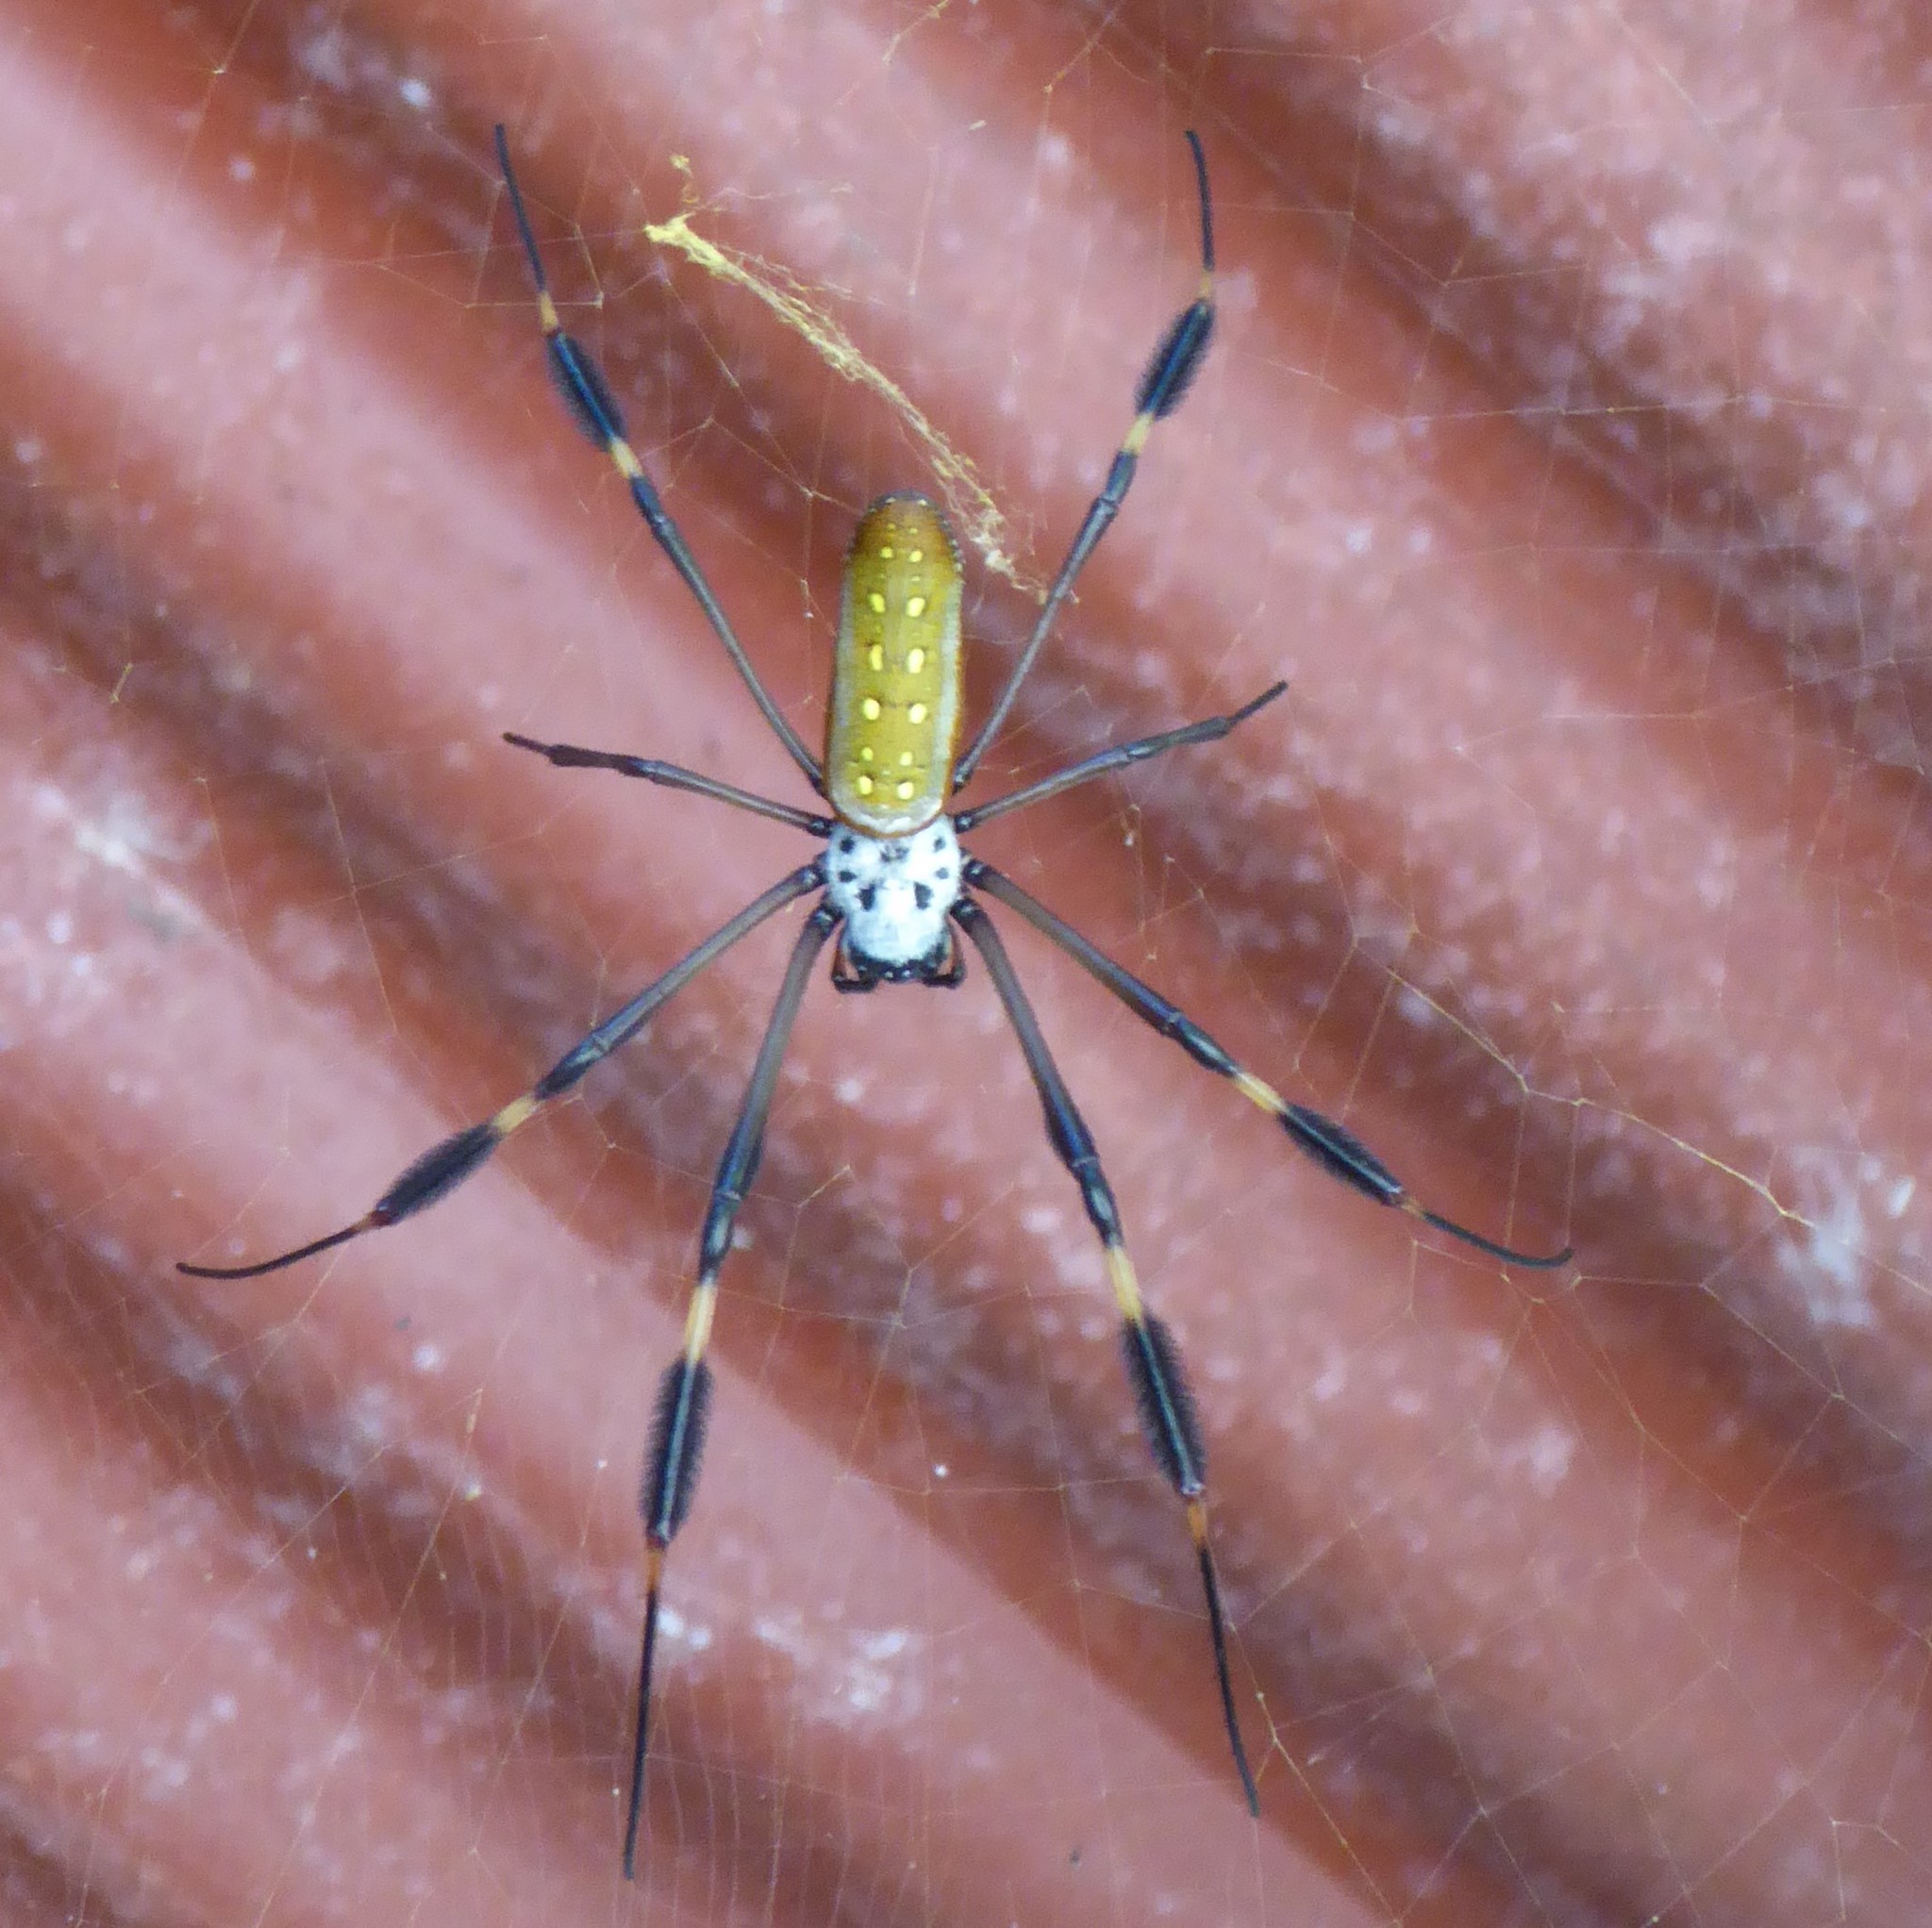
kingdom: Animalia
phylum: Arthropoda
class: Arachnida
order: Araneae
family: Araneidae
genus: Trichonephila
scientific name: Trichonephila clavipes
